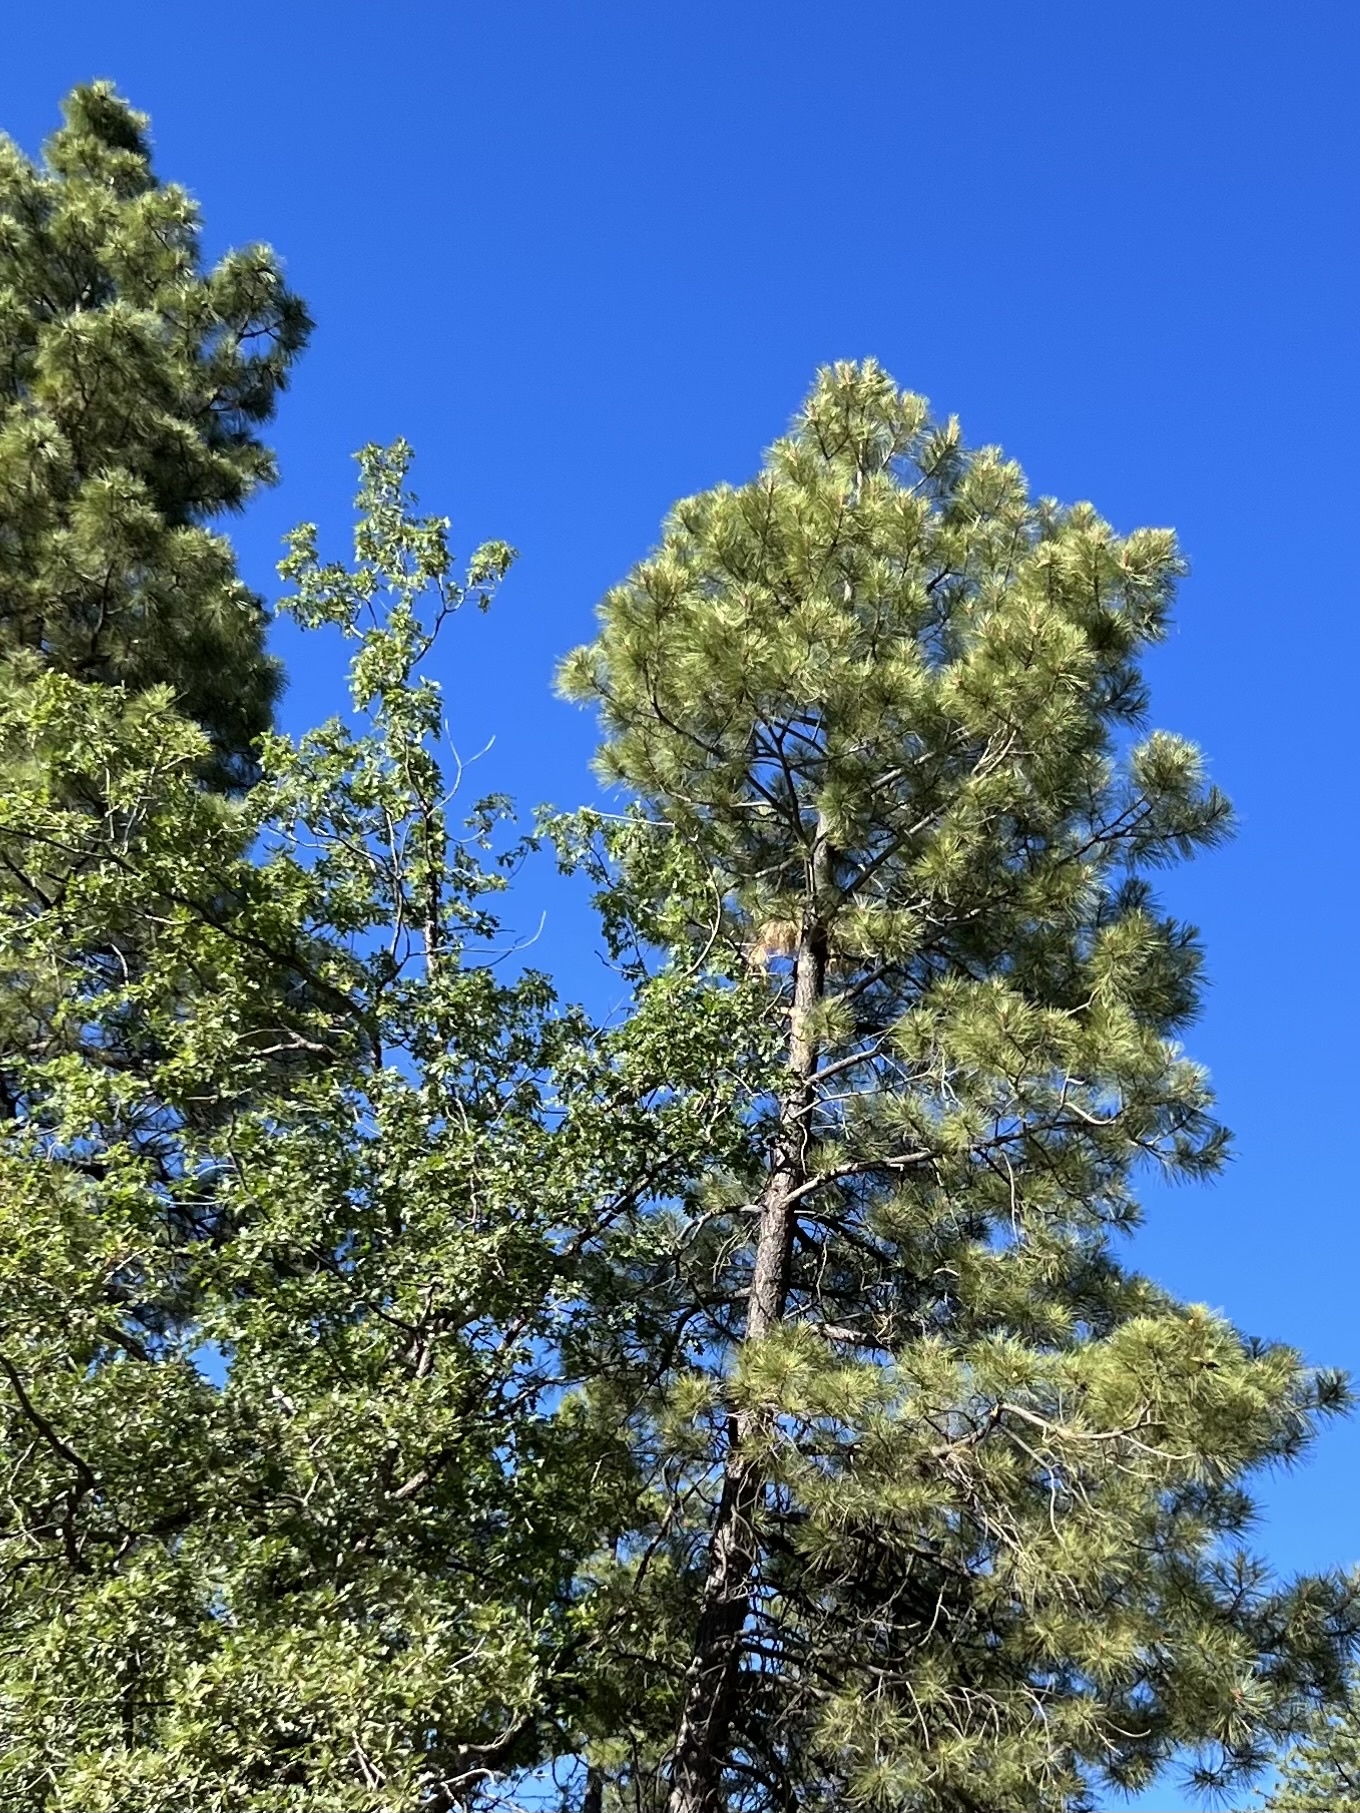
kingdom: Plantae
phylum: Tracheophyta
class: Pinopsida
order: Pinales
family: Pinaceae
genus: Pinus
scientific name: Pinus ponderosa
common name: Western yellow-pine
